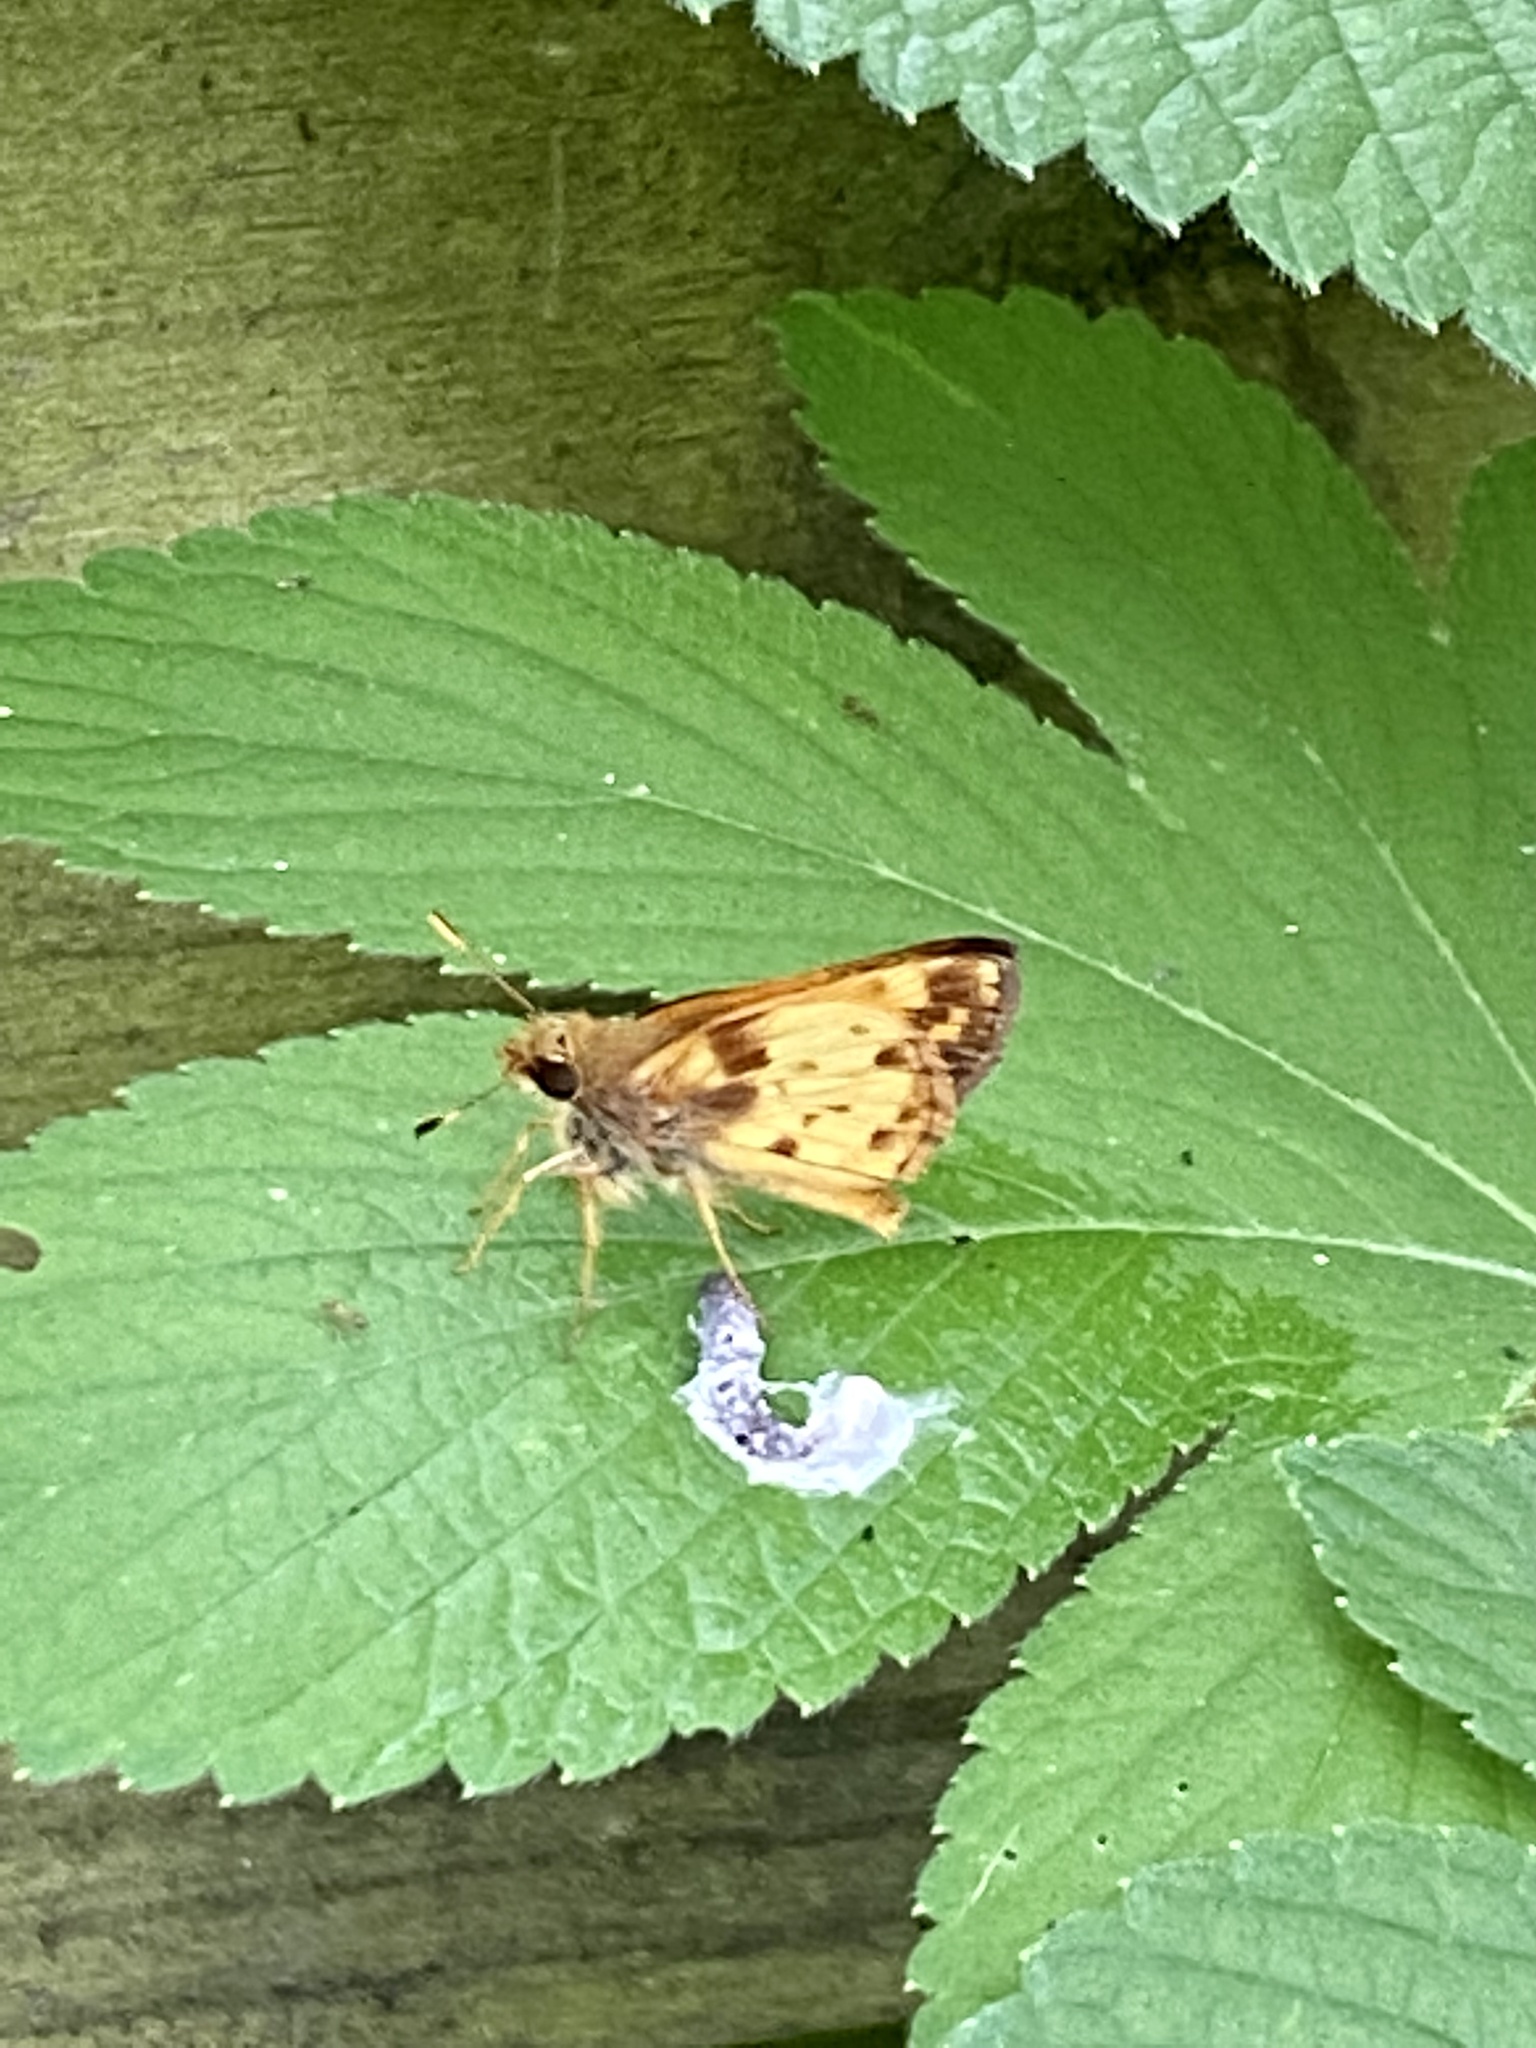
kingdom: Animalia
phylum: Arthropoda
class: Insecta
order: Lepidoptera
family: Hesperiidae
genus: Lon
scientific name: Lon zabulon
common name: Zabulon skipper
